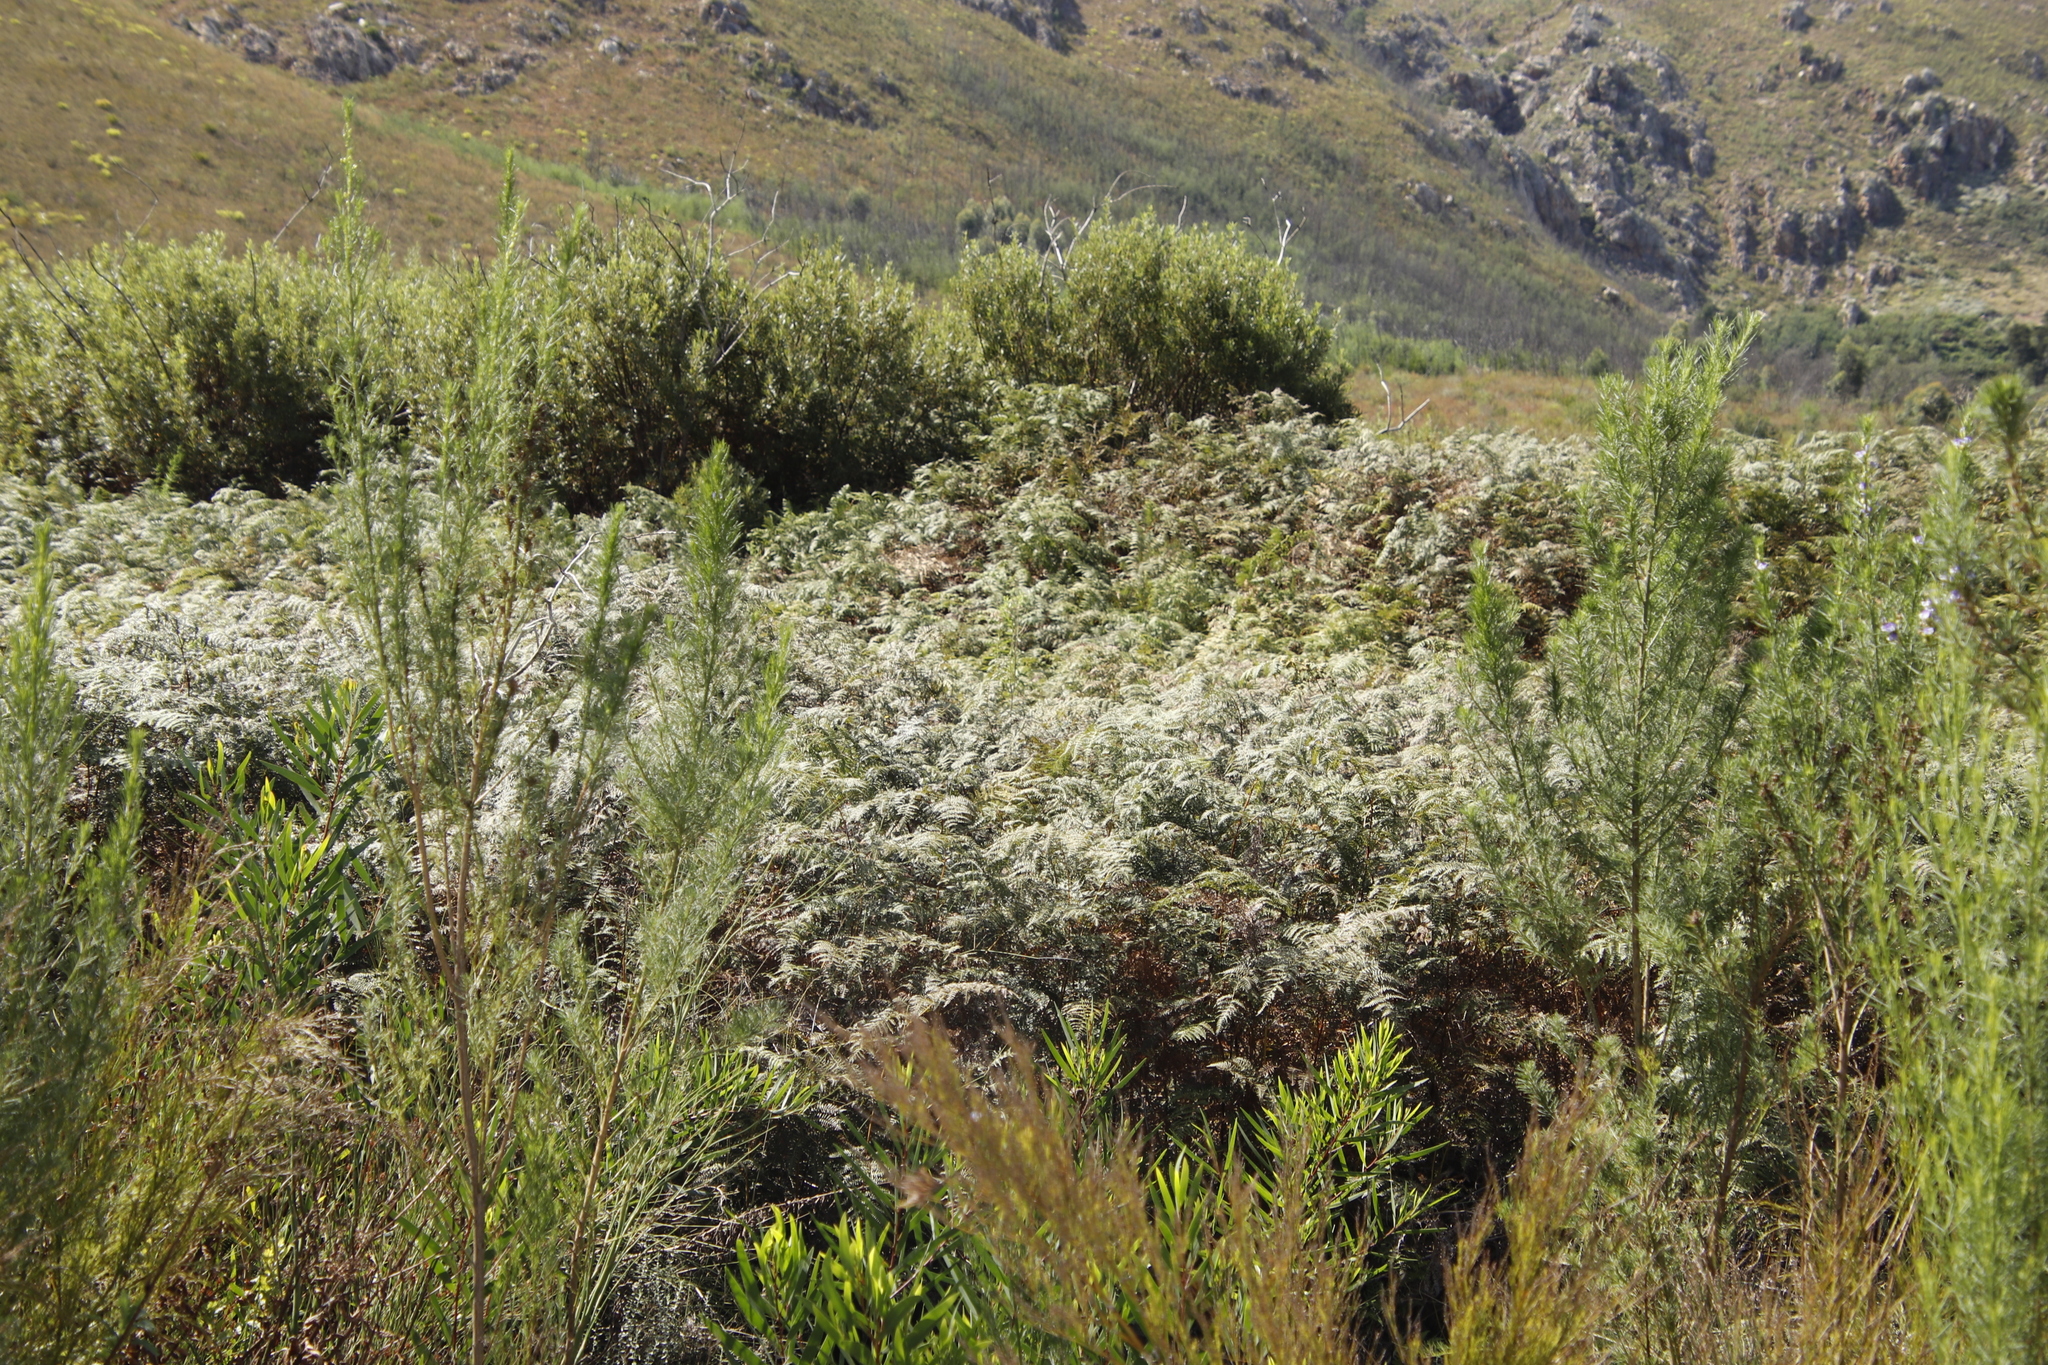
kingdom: Plantae
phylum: Tracheophyta
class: Polypodiopsida
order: Polypodiales
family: Dennstaedtiaceae
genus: Pteridium
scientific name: Pteridium aquilinum
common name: Bracken
